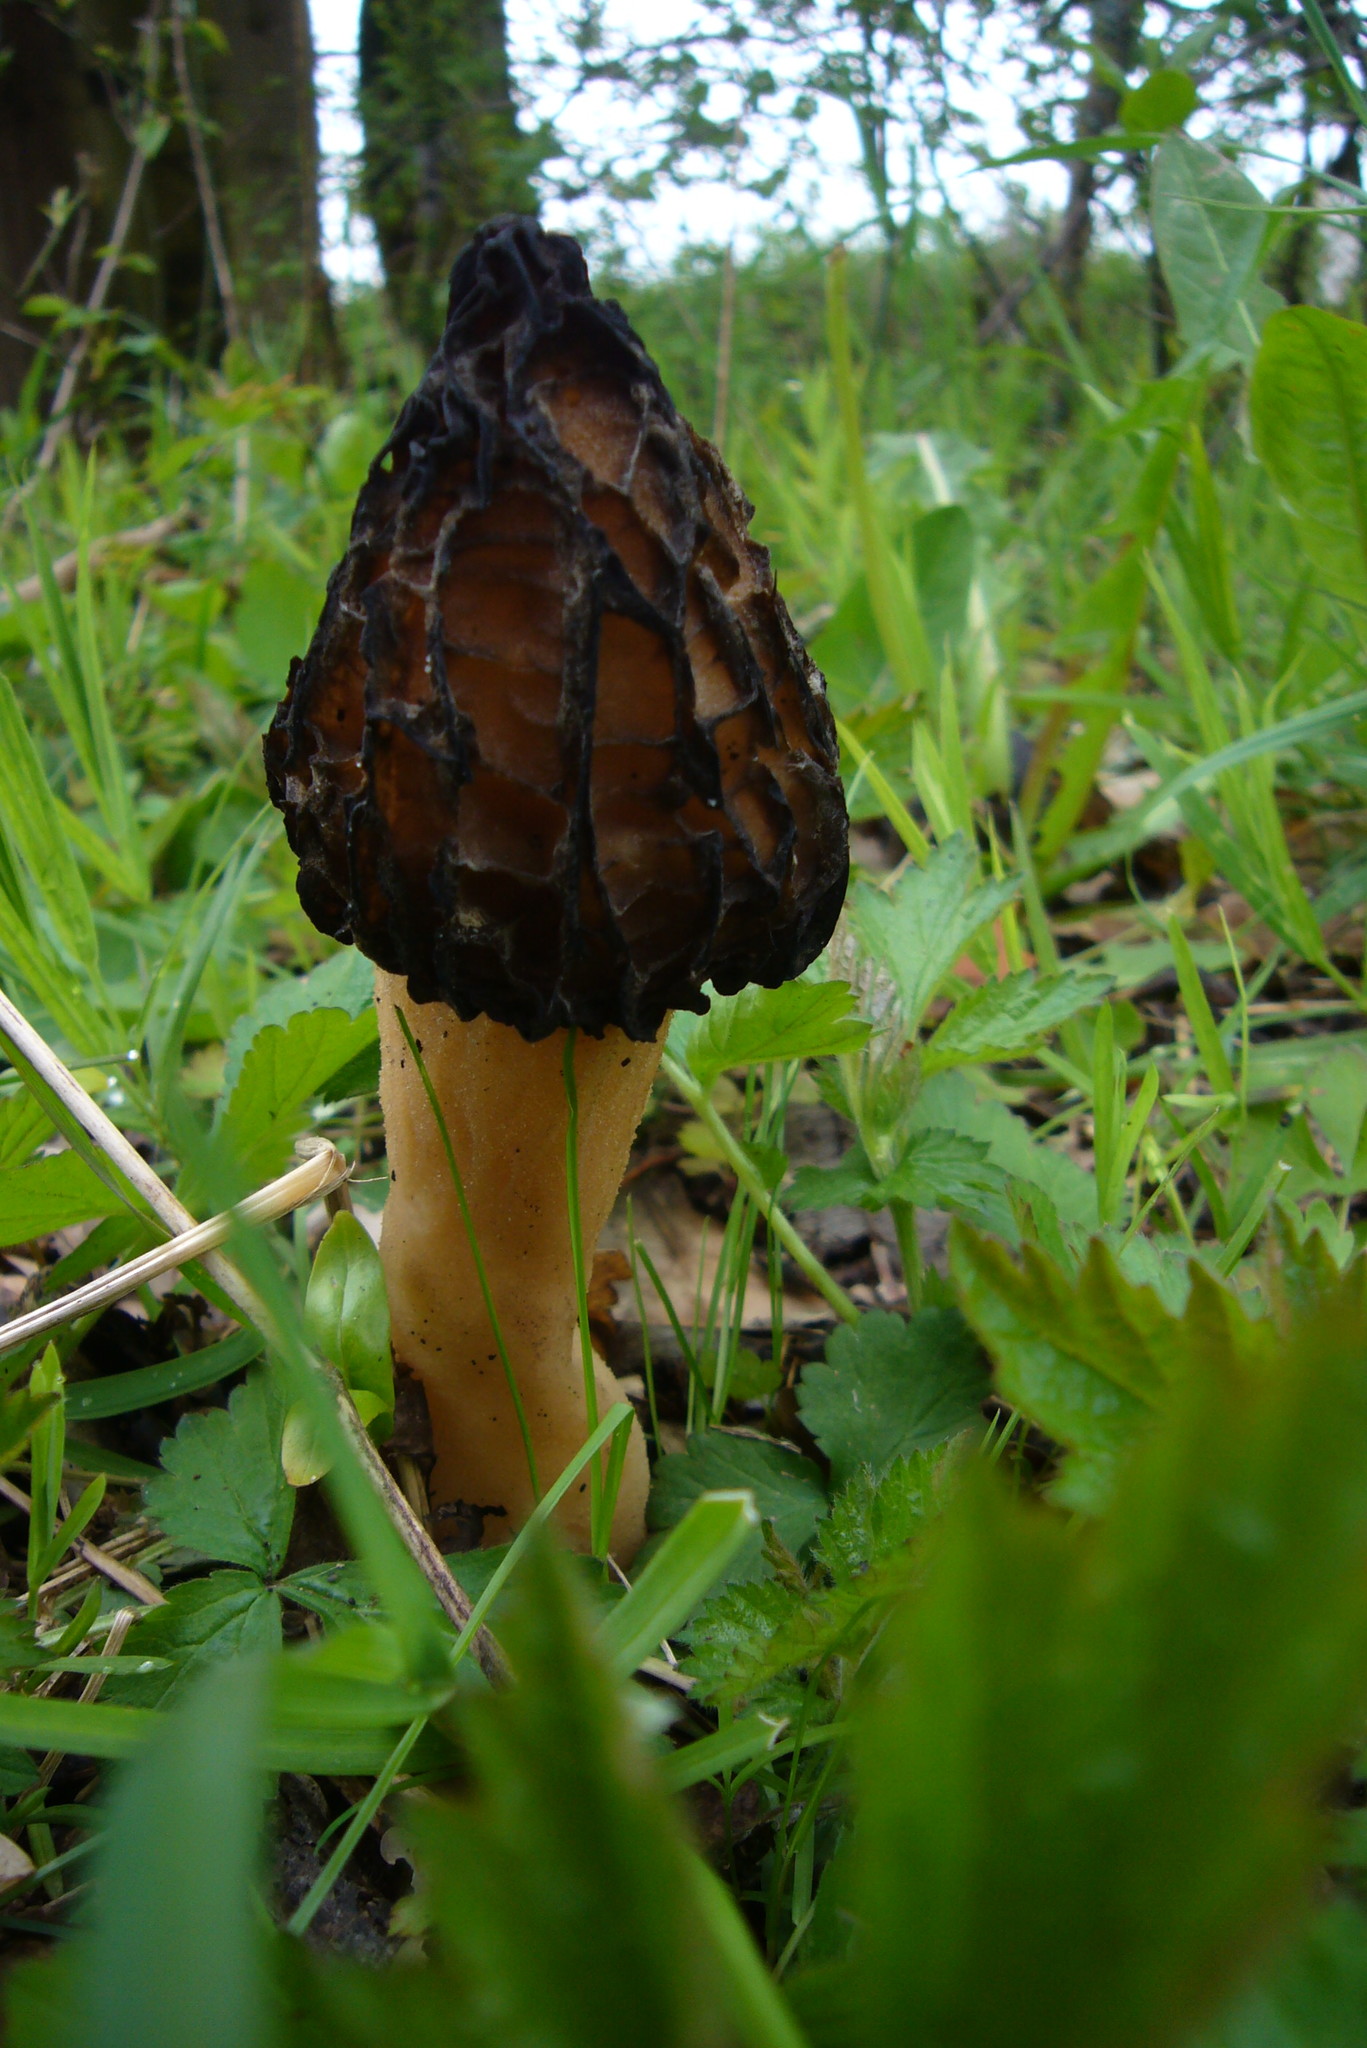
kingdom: Fungi
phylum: Ascomycota
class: Pezizomycetes
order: Pezizales
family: Morchellaceae
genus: Morchella
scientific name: Morchella semilibera
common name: Semifree morel
